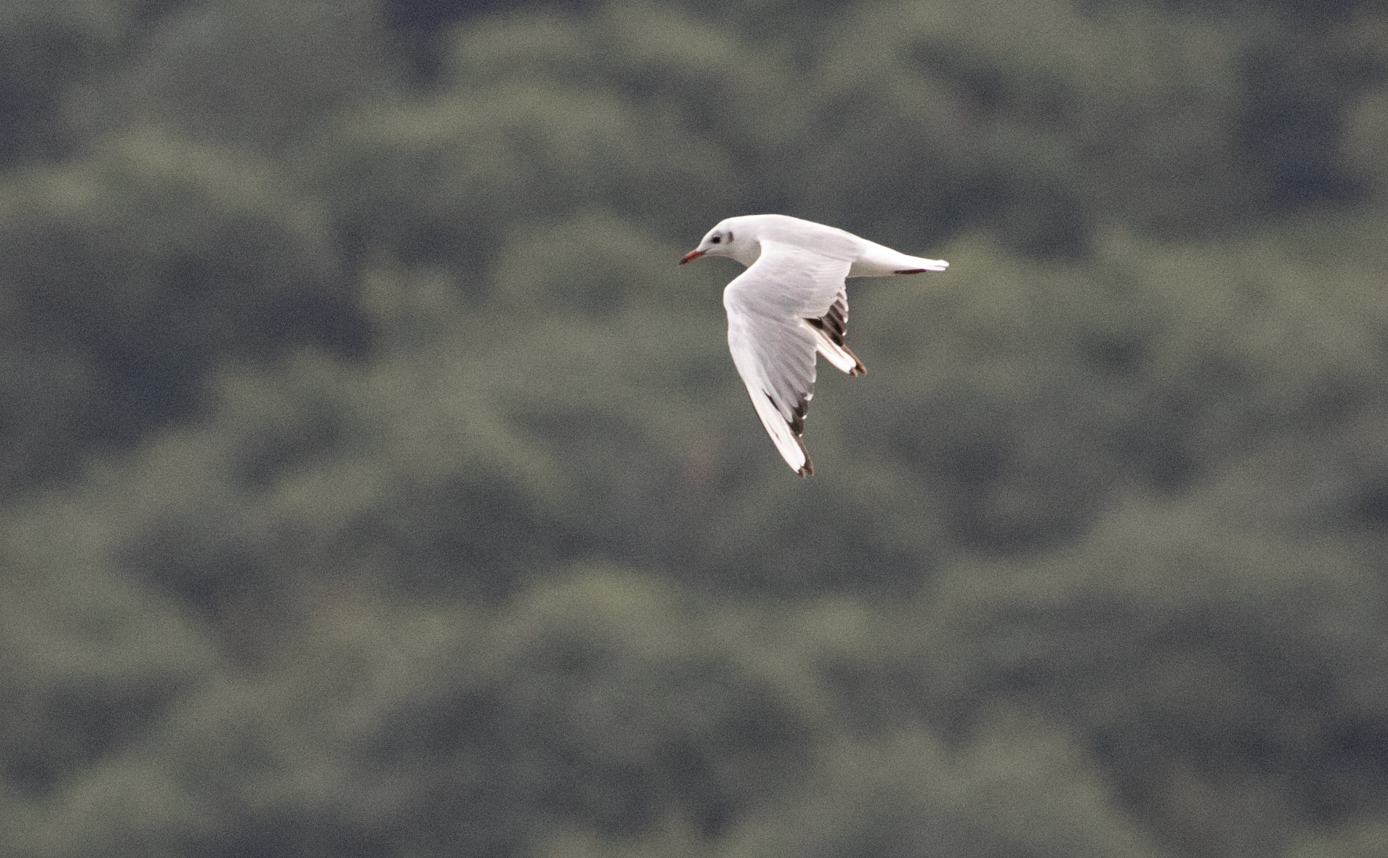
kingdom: Animalia
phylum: Chordata
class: Aves
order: Charadriiformes
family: Laridae
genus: Chroicocephalus
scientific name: Chroicocephalus ridibundus
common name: Black-headed gull
